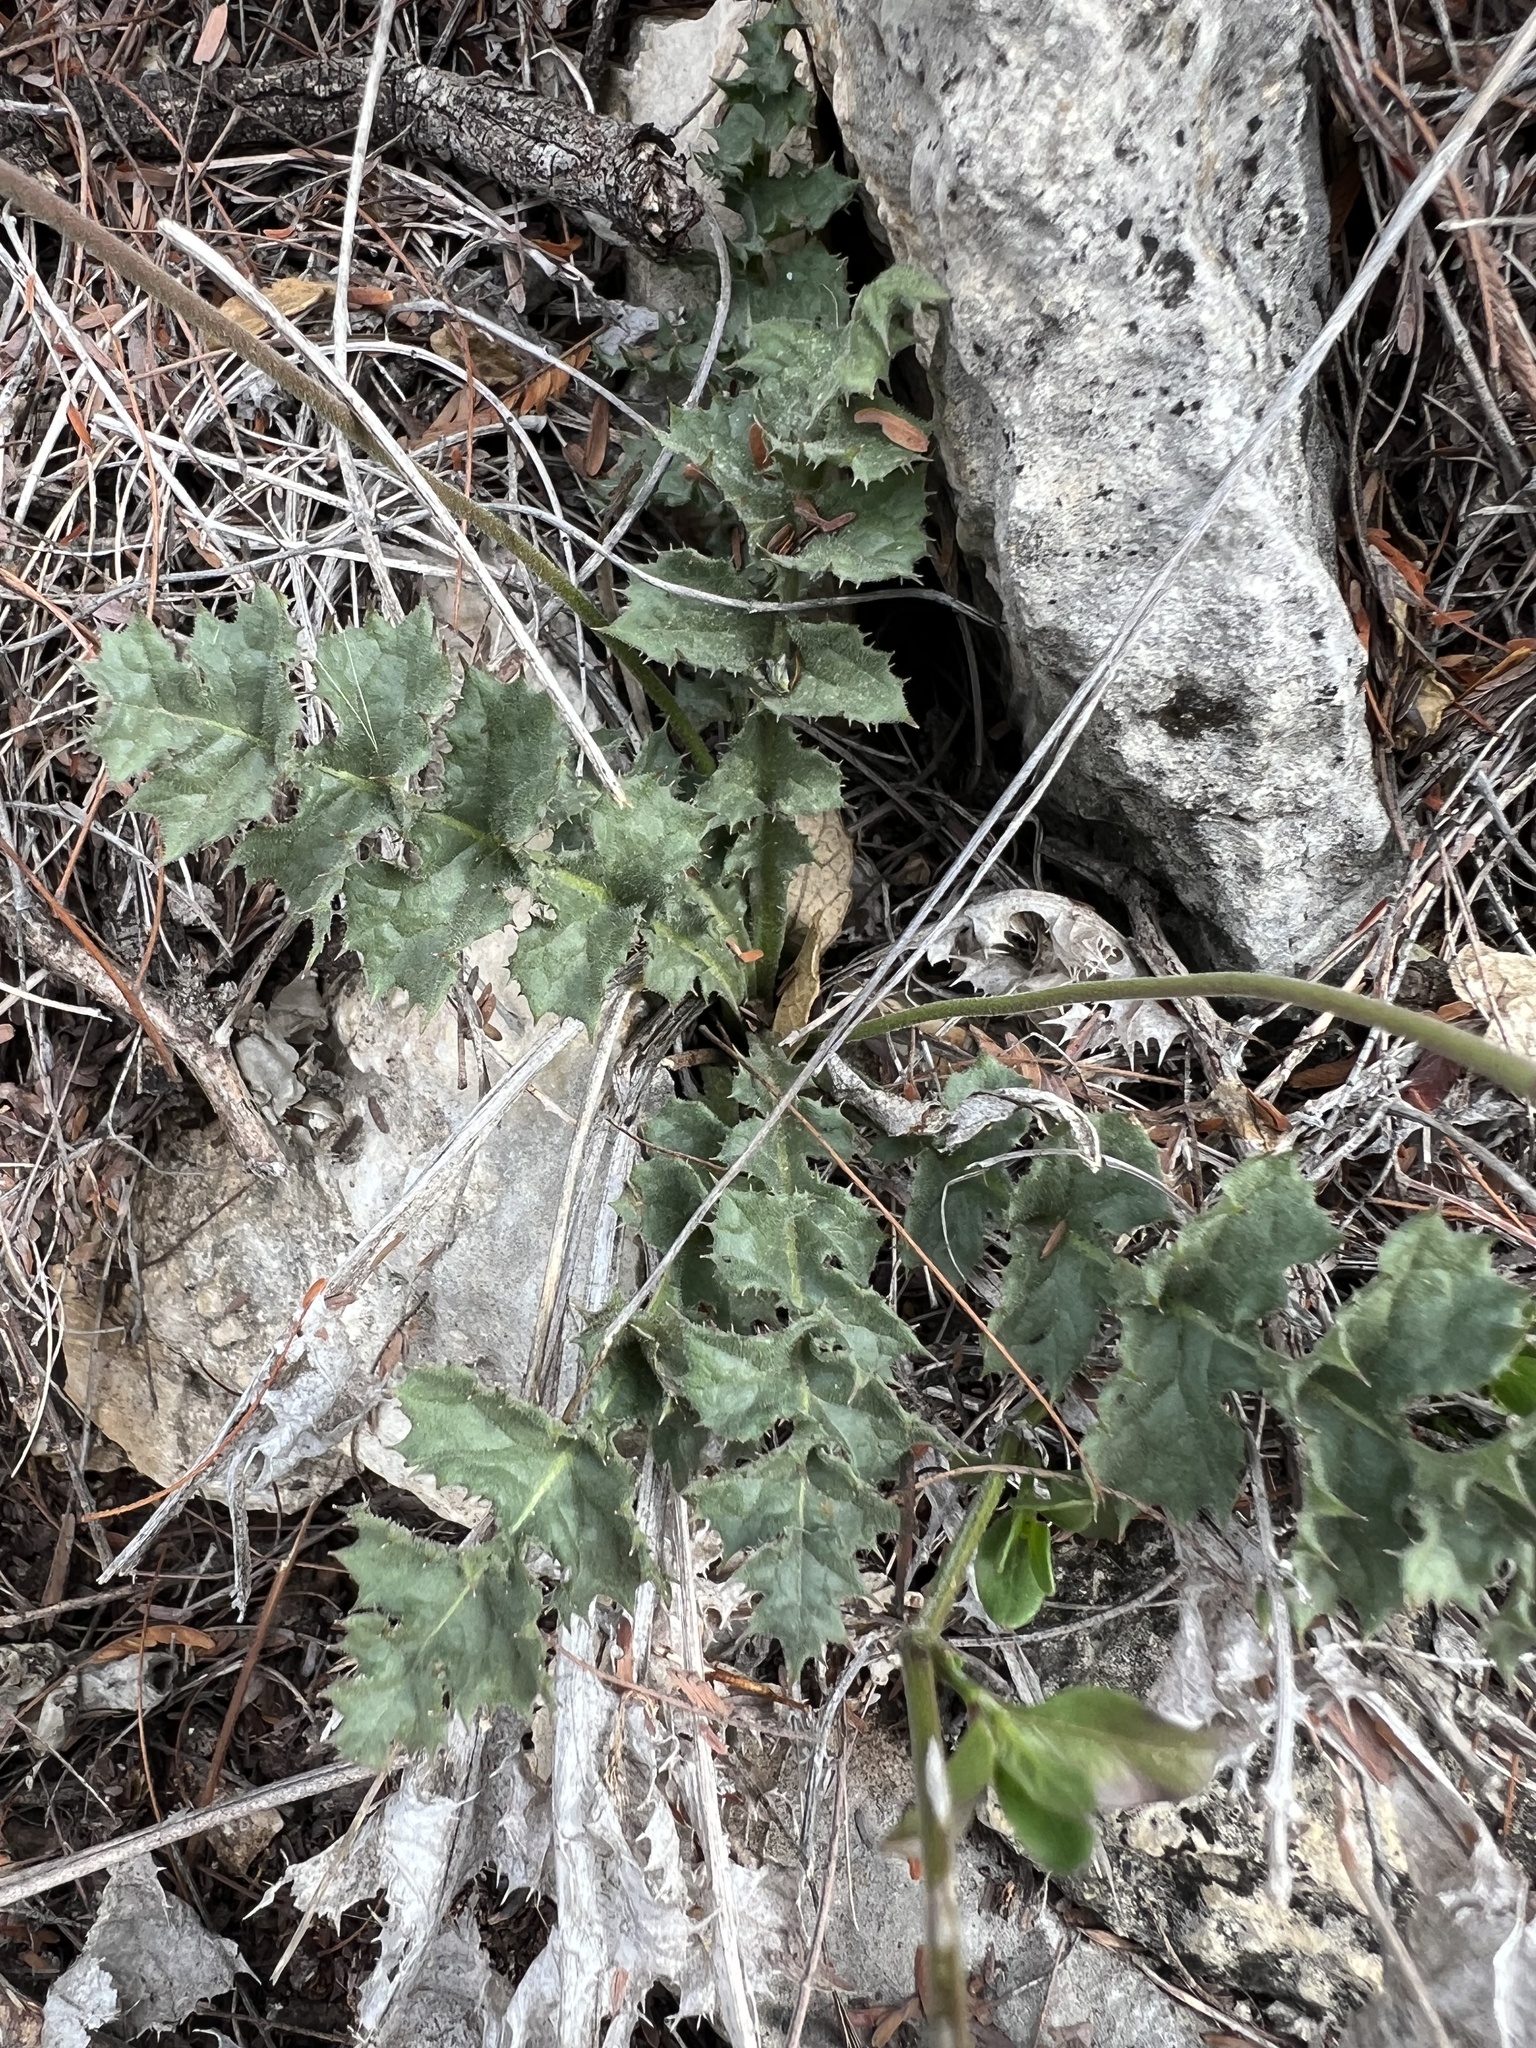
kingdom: Plantae
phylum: Tracheophyta
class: Magnoliopsida
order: Asterales
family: Asteraceae
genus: Acourtia
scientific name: Acourtia runcinata
